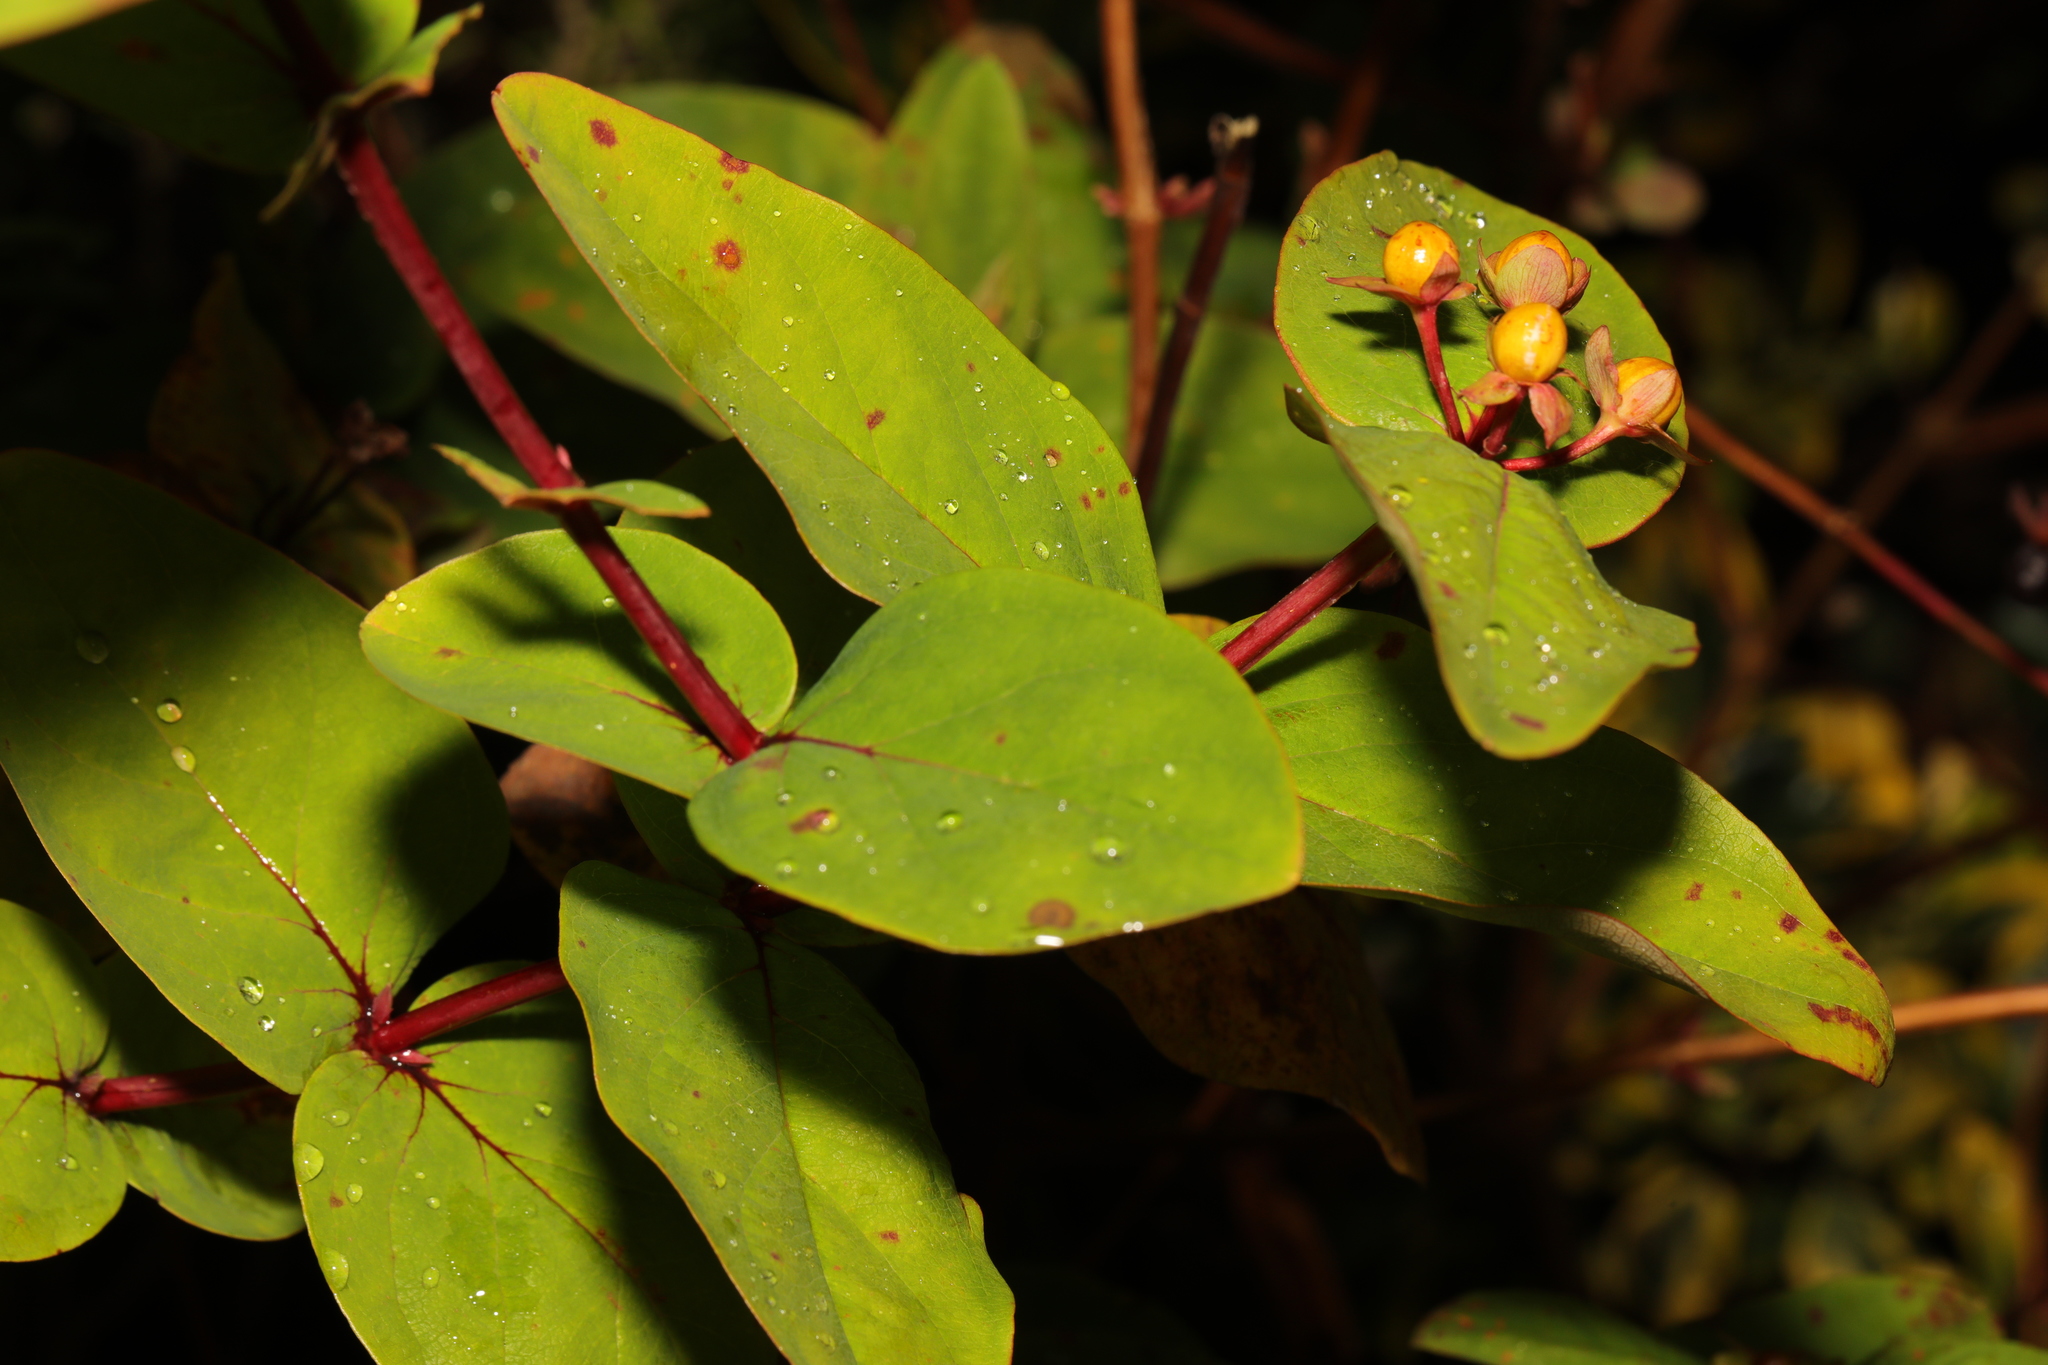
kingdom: Plantae
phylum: Tracheophyta
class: Magnoliopsida
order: Malpighiales
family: Hypericaceae
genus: Hypericum
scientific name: Hypericum androsaemum
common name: Sweet-amber
